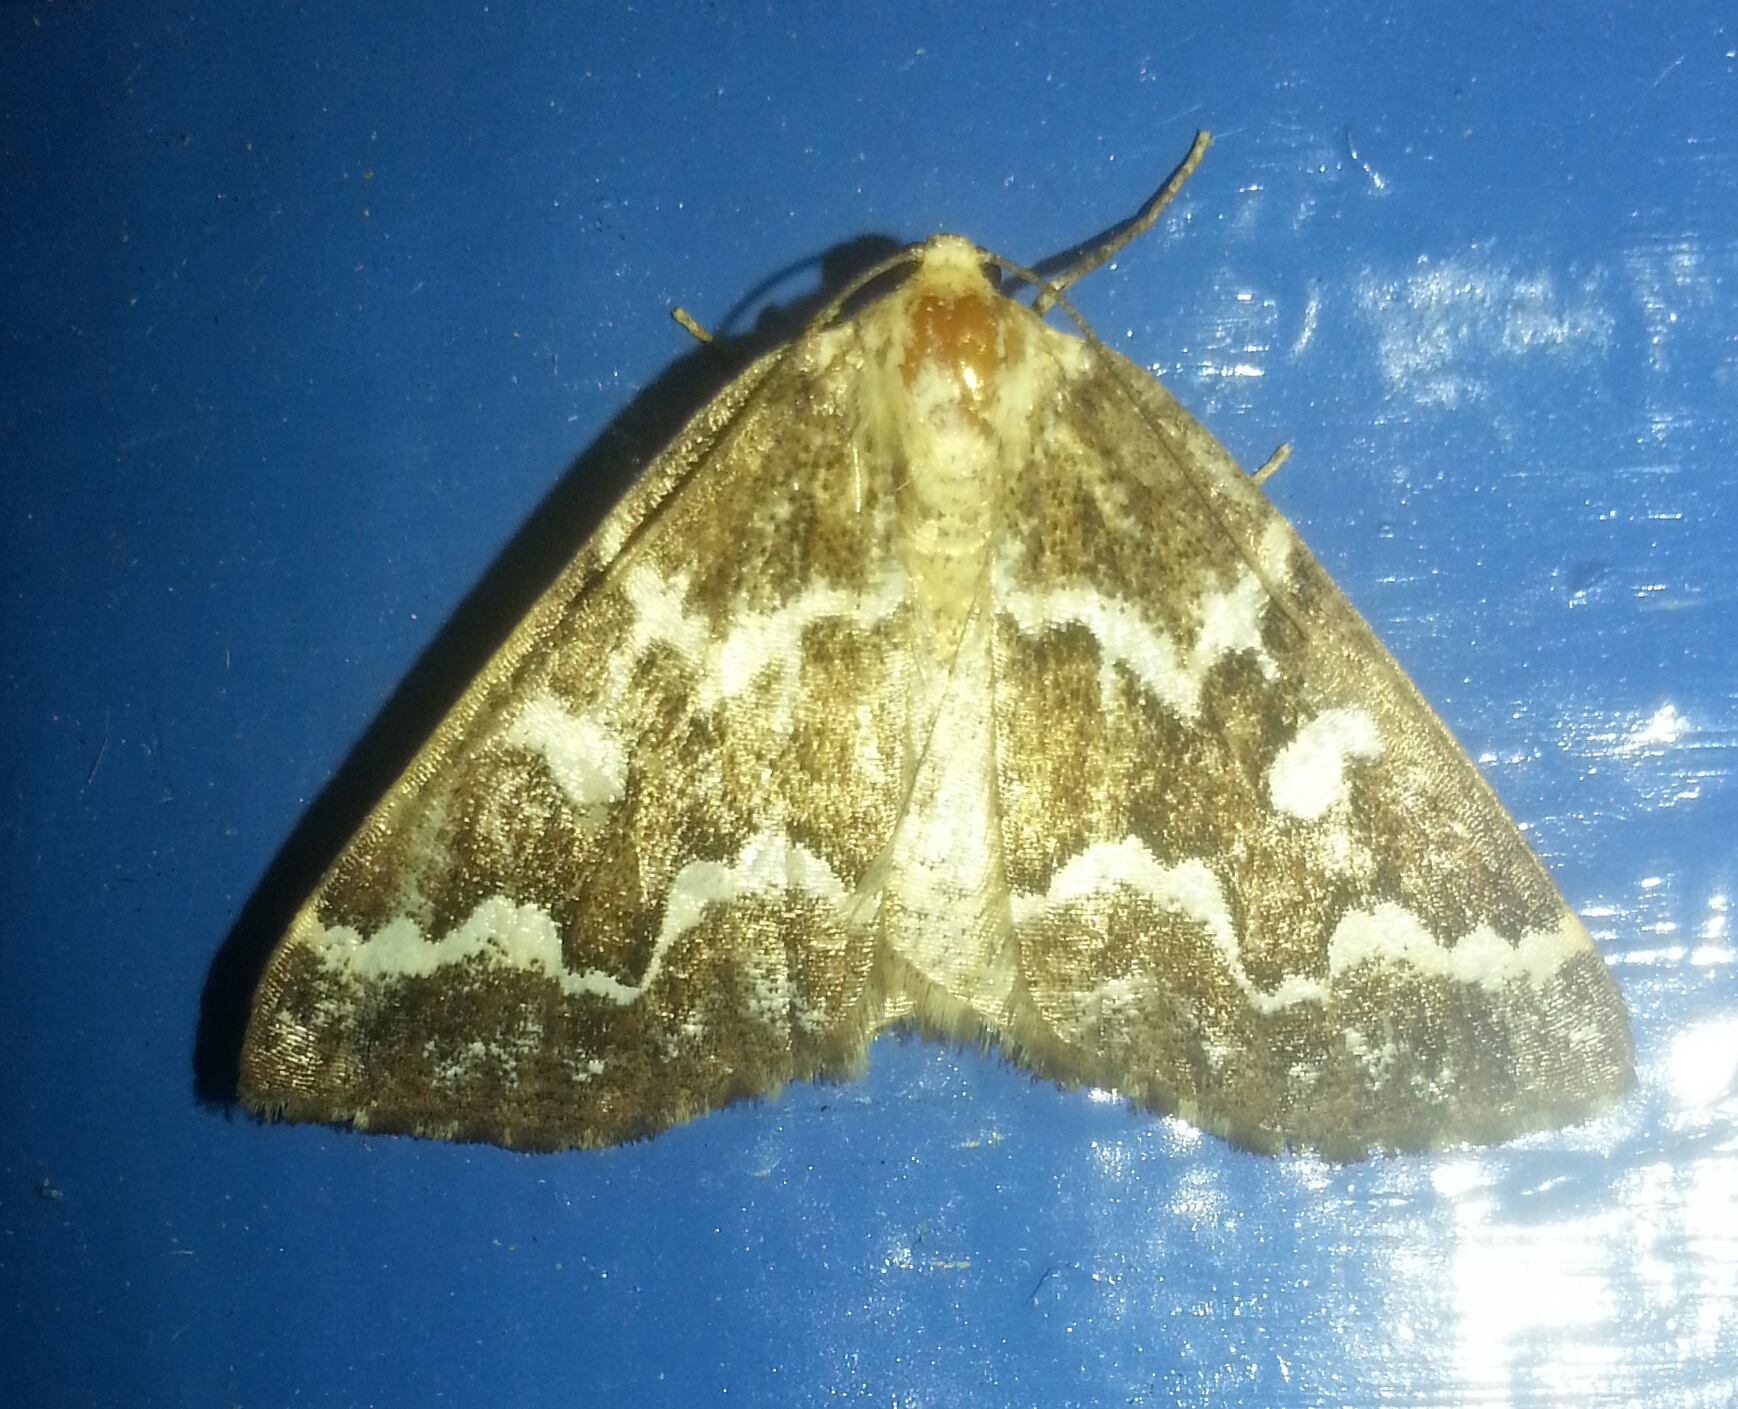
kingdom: Animalia
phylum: Arthropoda
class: Insecta
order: Lepidoptera
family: Geometridae
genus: Caripeta
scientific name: Caripeta divisata
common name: Gray spruce looper
